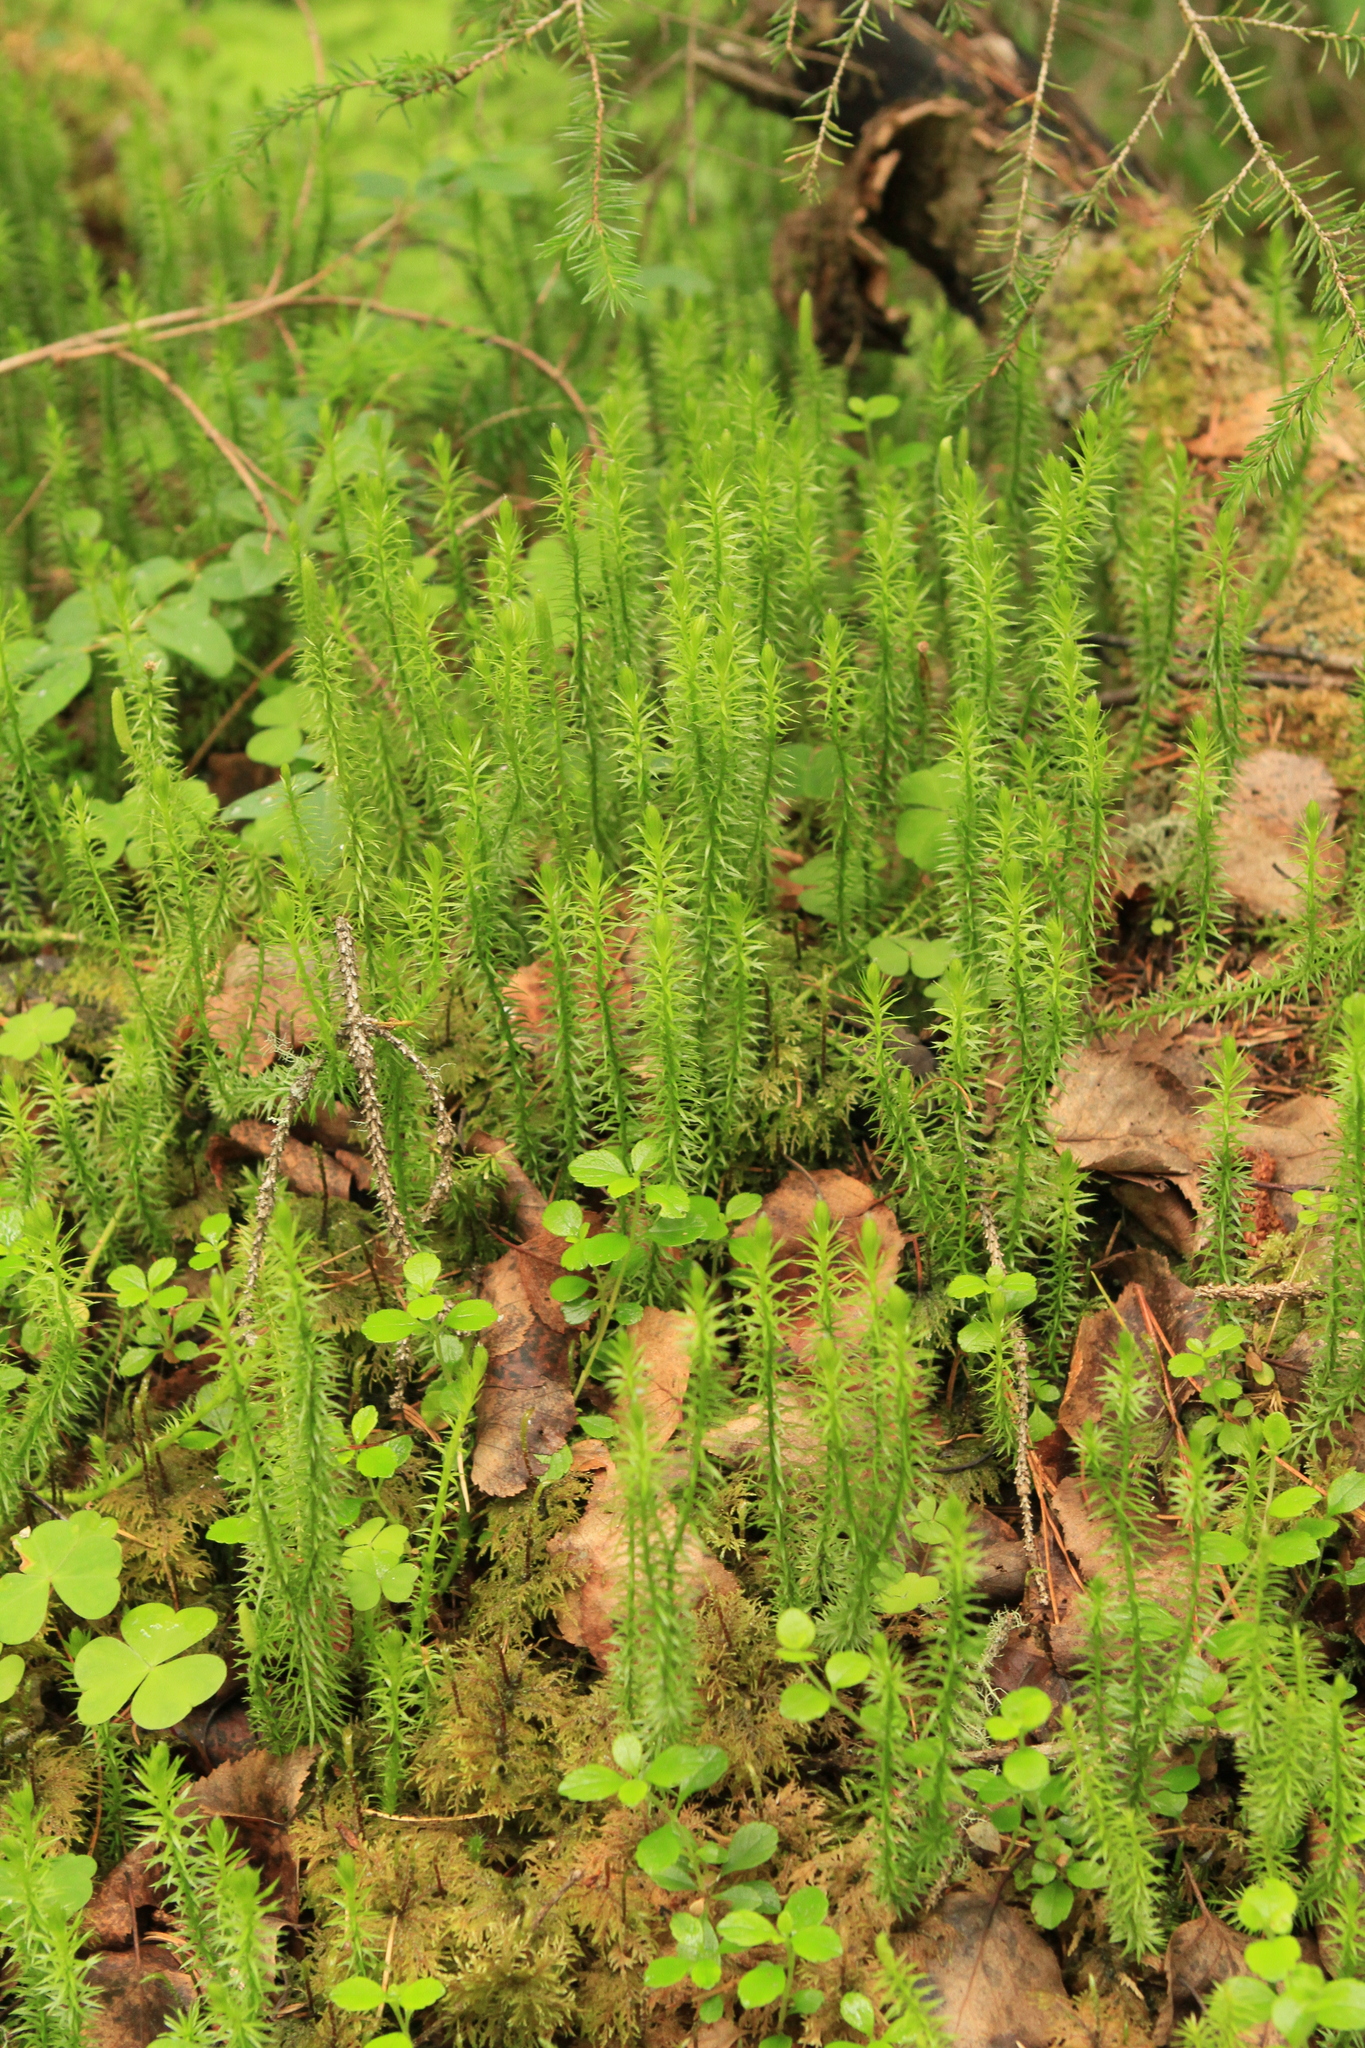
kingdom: Plantae
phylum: Tracheophyta
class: Lycopodiopsida
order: Lycopodiales
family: Lycopodiaceae
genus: Spinulum
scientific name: Spinulum annotinum
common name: Interrupted club-moss
